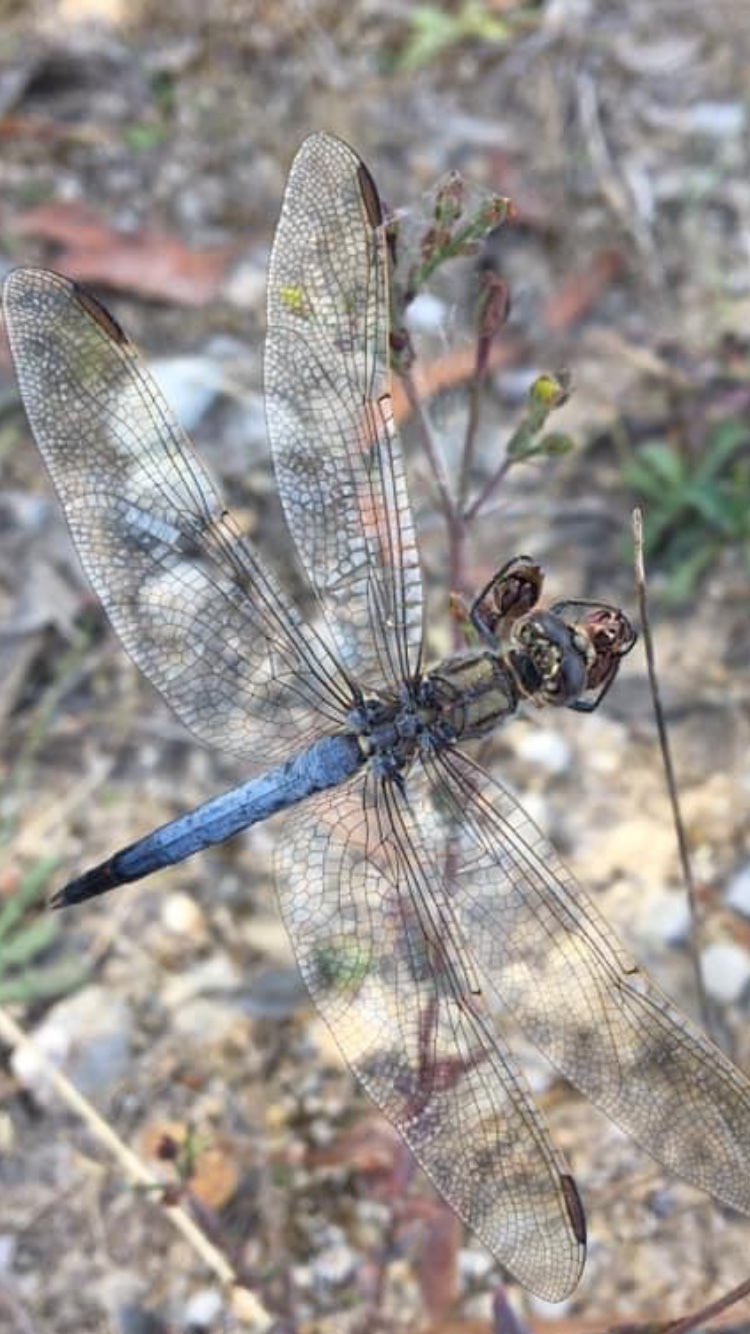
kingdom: Animalia
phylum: Arthropoda
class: Insecta
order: Odonata
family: Libellulidae
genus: Orthetrum
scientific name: Orthetrum caledonicum
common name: Blue skimmer
